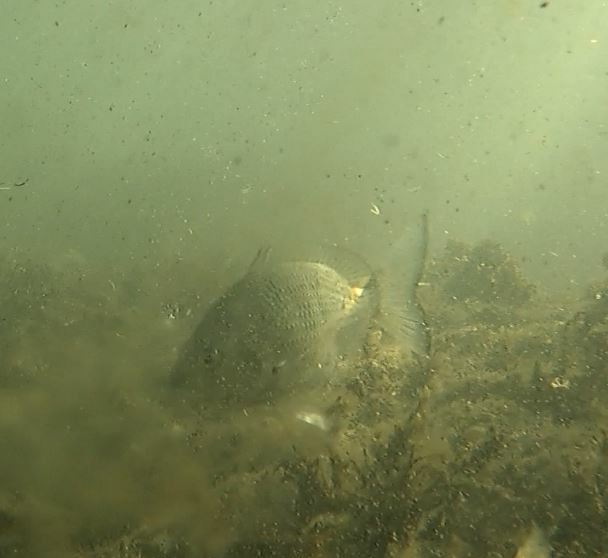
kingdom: Animalia
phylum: Chordata
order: Perciformes
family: Sparidae
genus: Acanthopagrus
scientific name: Acanthopagrus australis
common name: Surf bream
